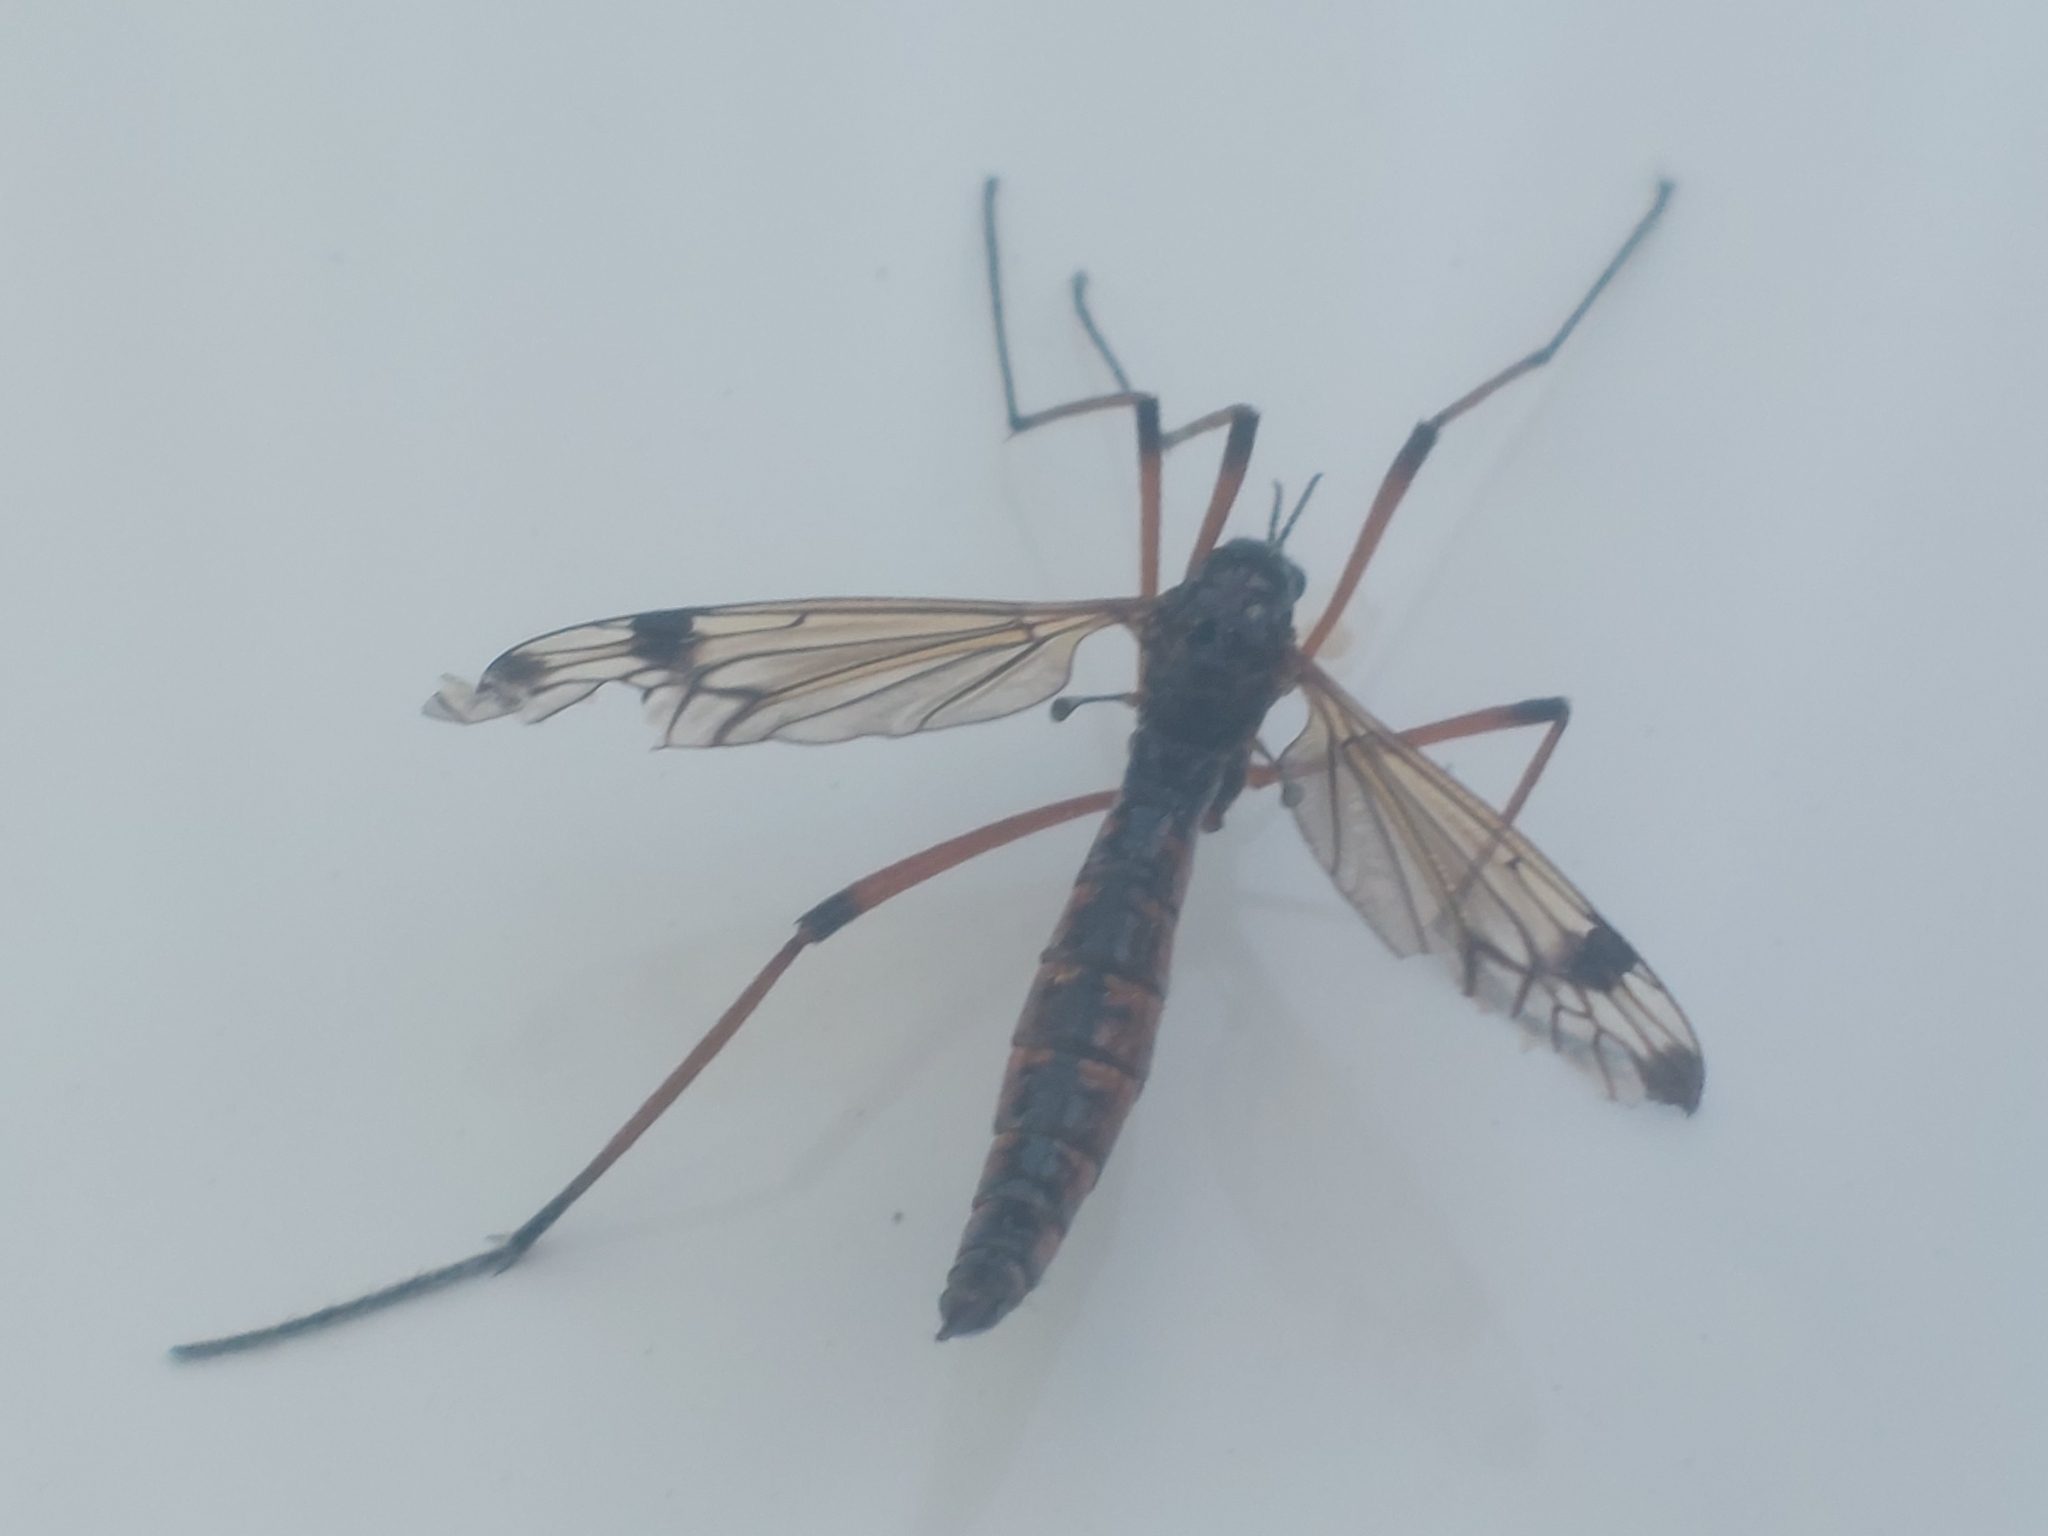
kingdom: Animalia
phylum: Arthropoda
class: Insecta
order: Diptera
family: Tipulidae
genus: Dictenidia
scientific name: Dictenidia bimaculata
